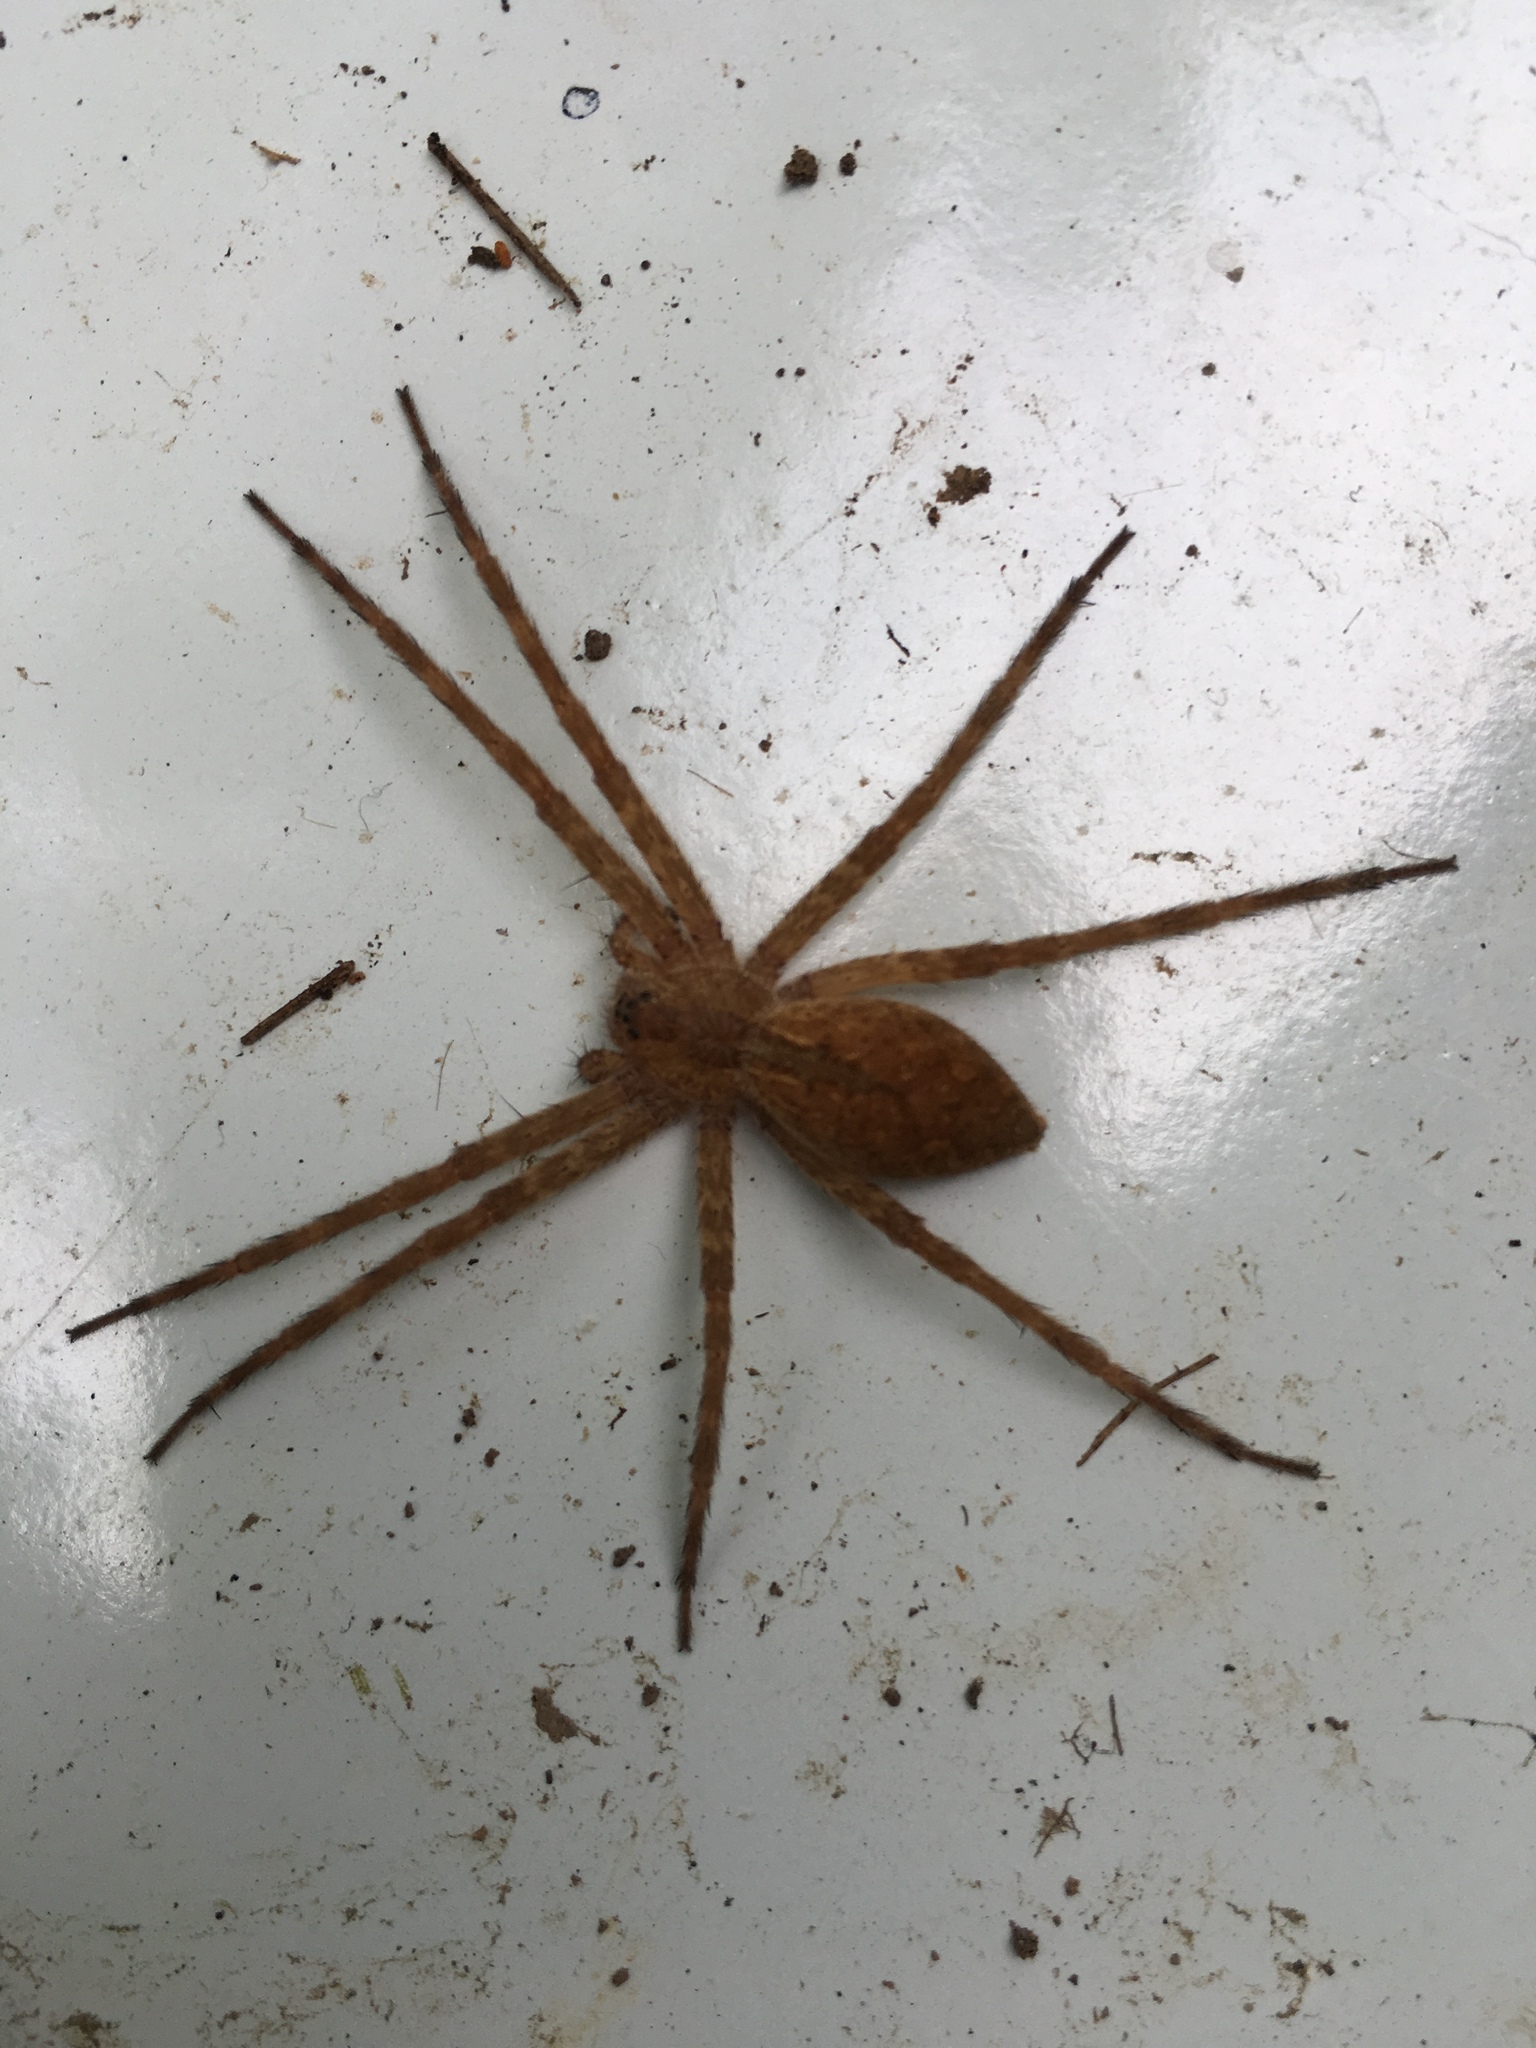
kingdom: Animalia
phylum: Arthropoda
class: Arachnida
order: Araneae
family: Pisauridae
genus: Pisaurina
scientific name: Pisaurina mira
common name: American nursery web spider
